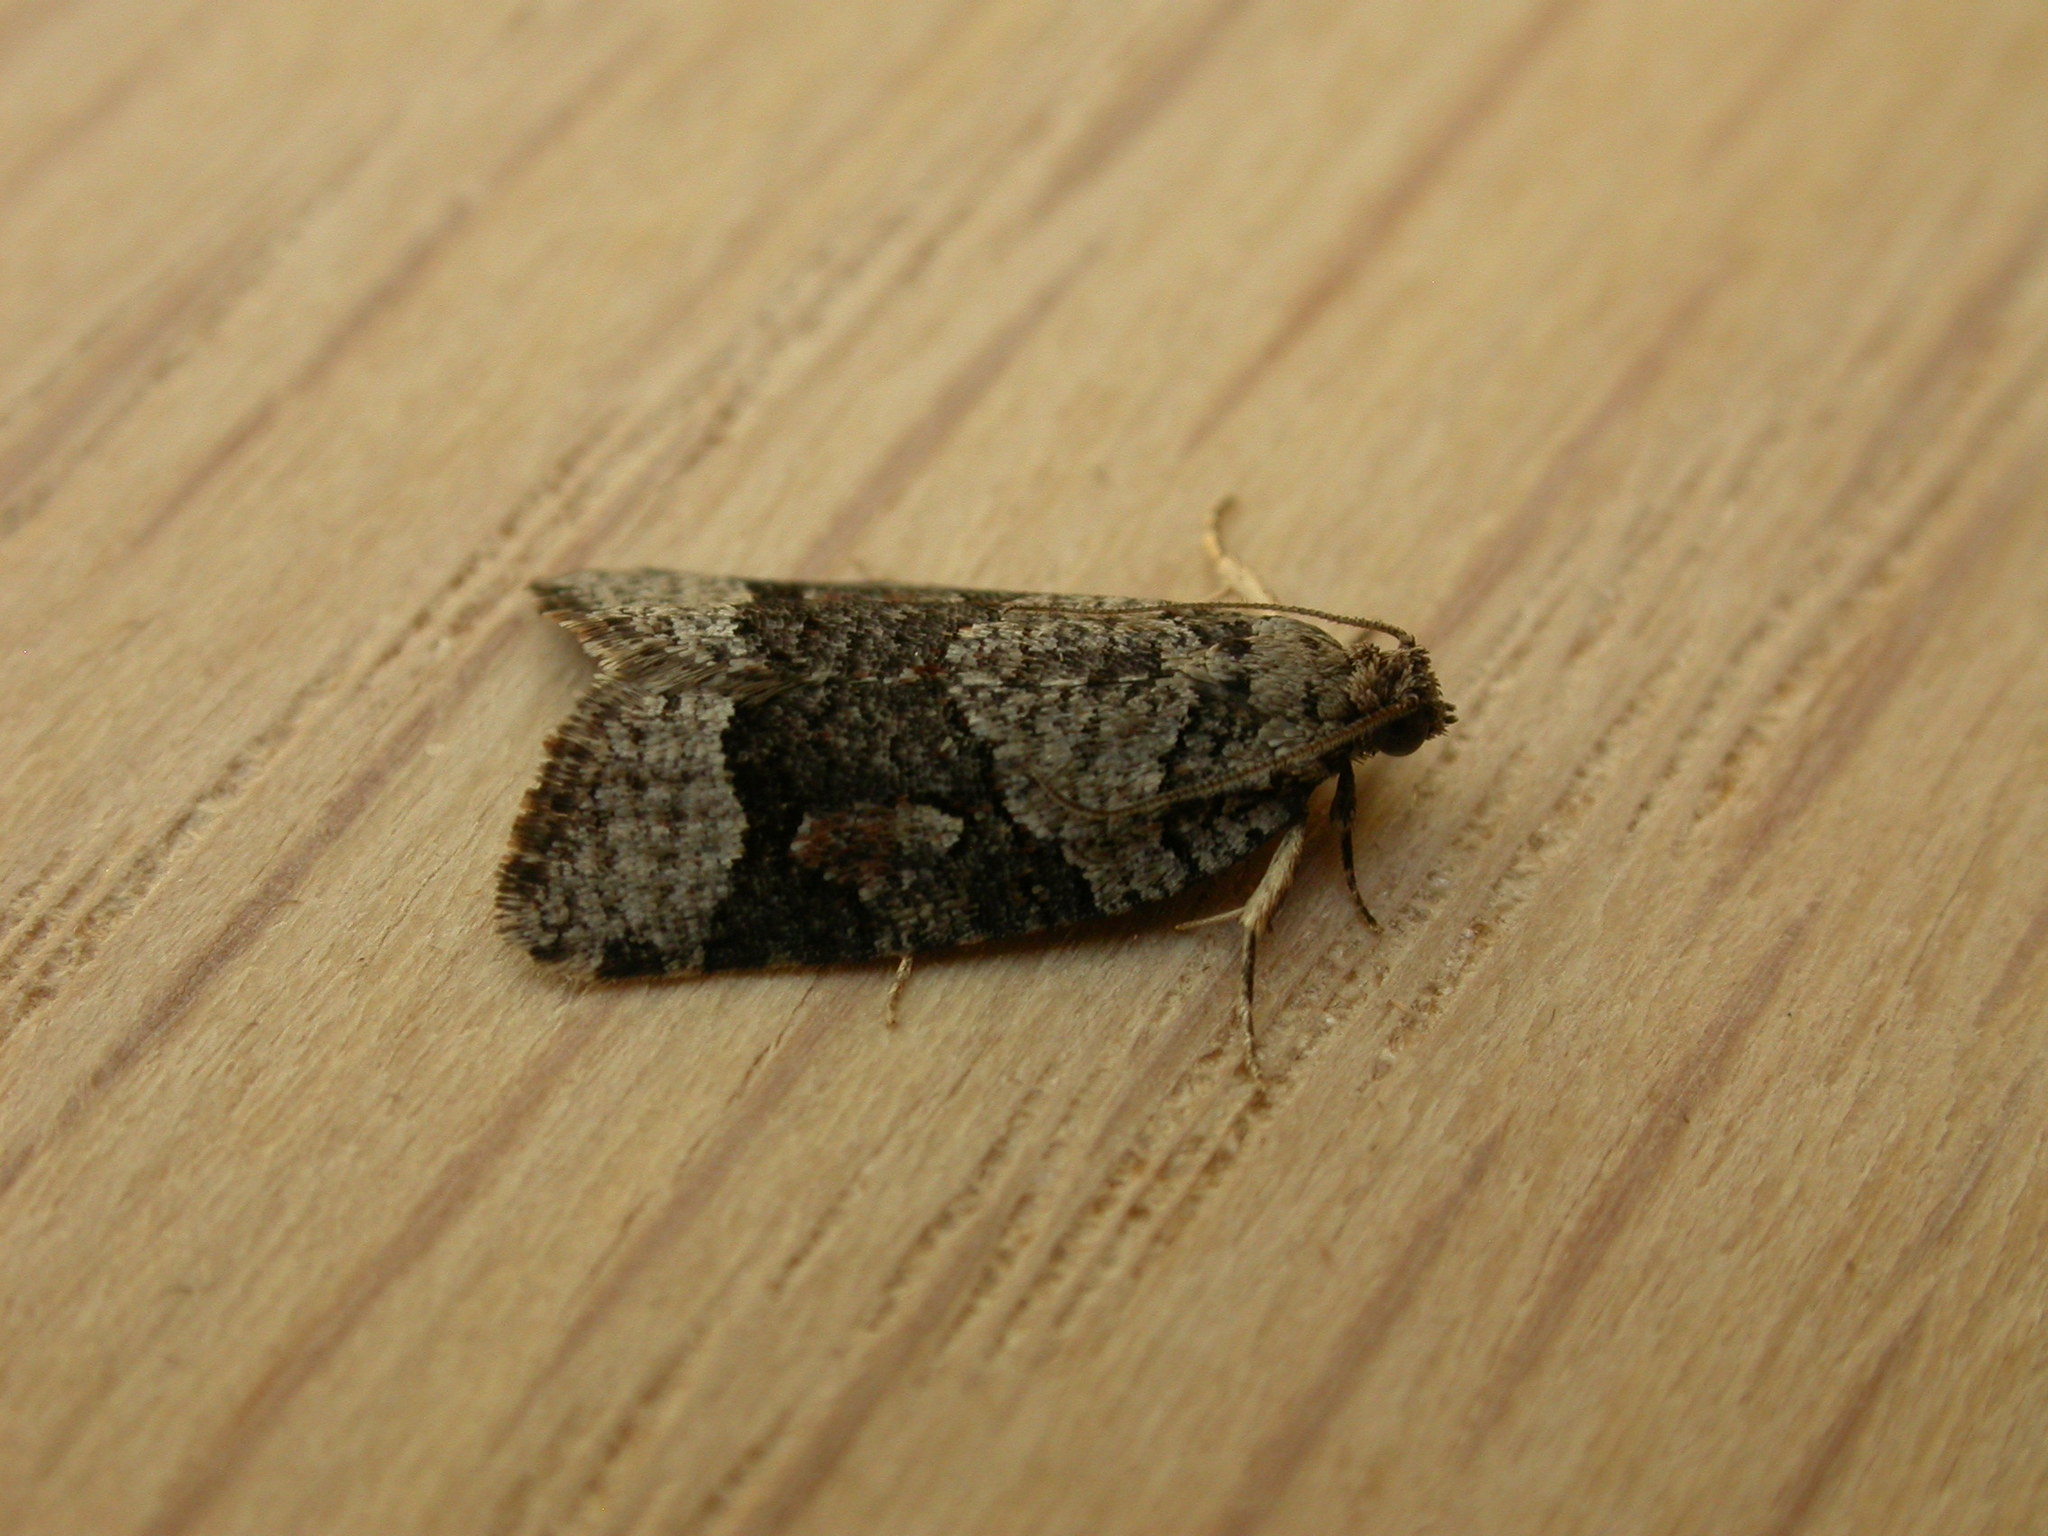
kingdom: Animalia
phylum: Arthropoda
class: Insecta
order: Lepidoptera
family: Tortricidae
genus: Meritastis
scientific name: Meritastis lythrodana
